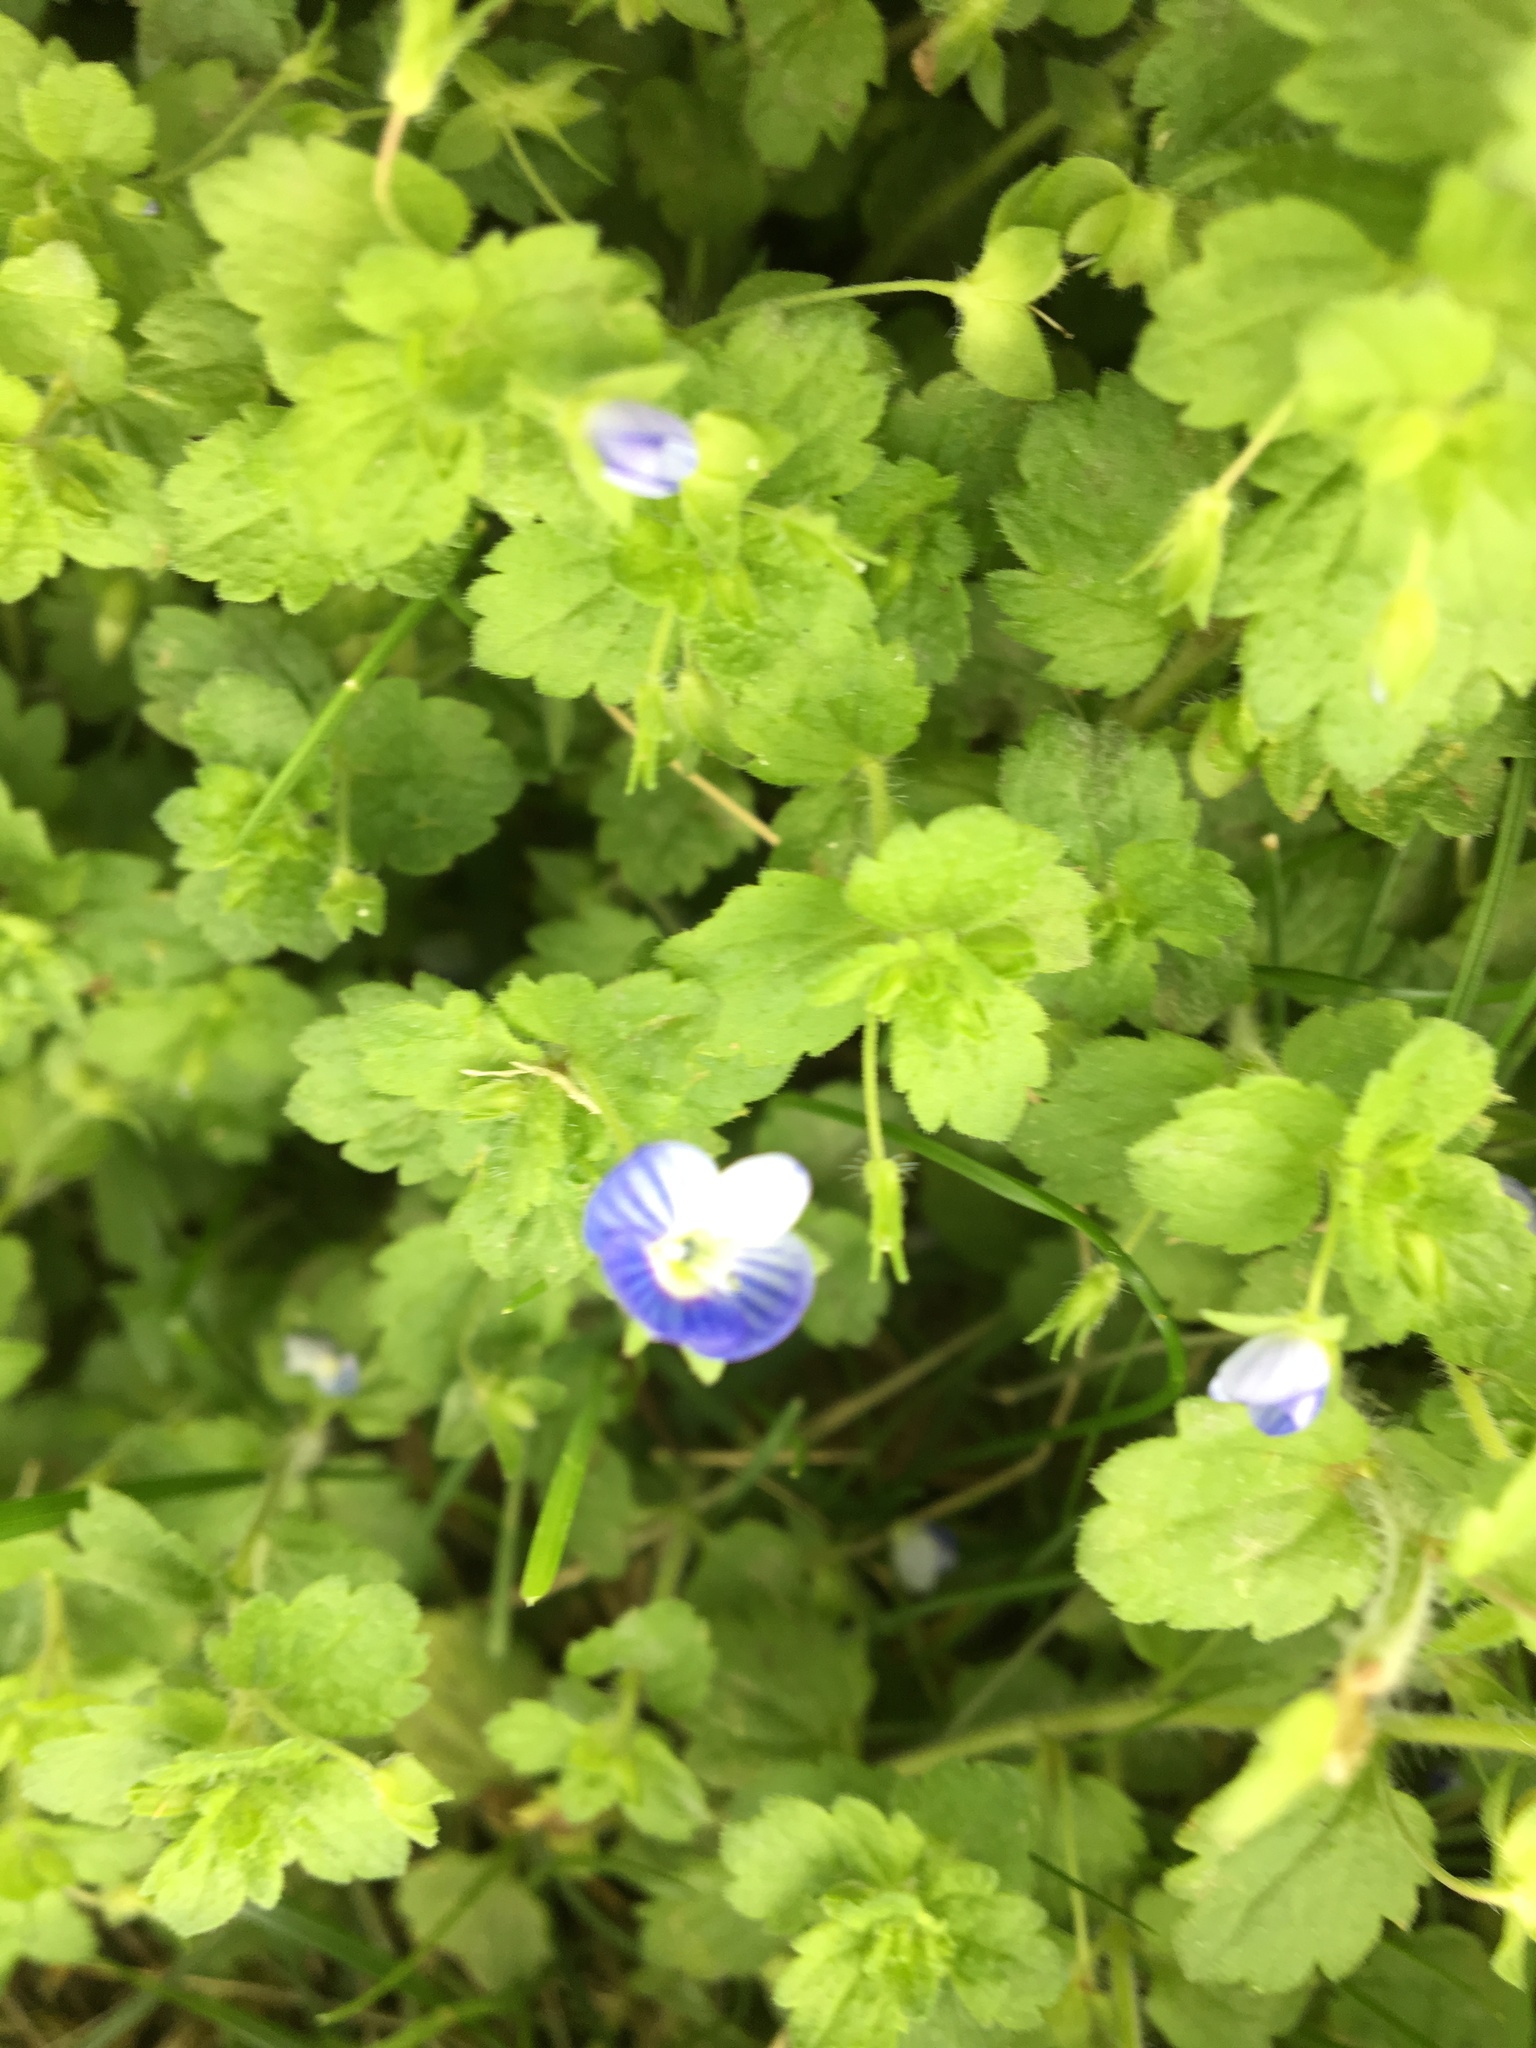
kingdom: Plantae
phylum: Tracheophyta
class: Magnoliopsida
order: Lamiales
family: Plantaginaceae
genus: Veronica
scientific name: Veronica persica
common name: Common field-speedwell
